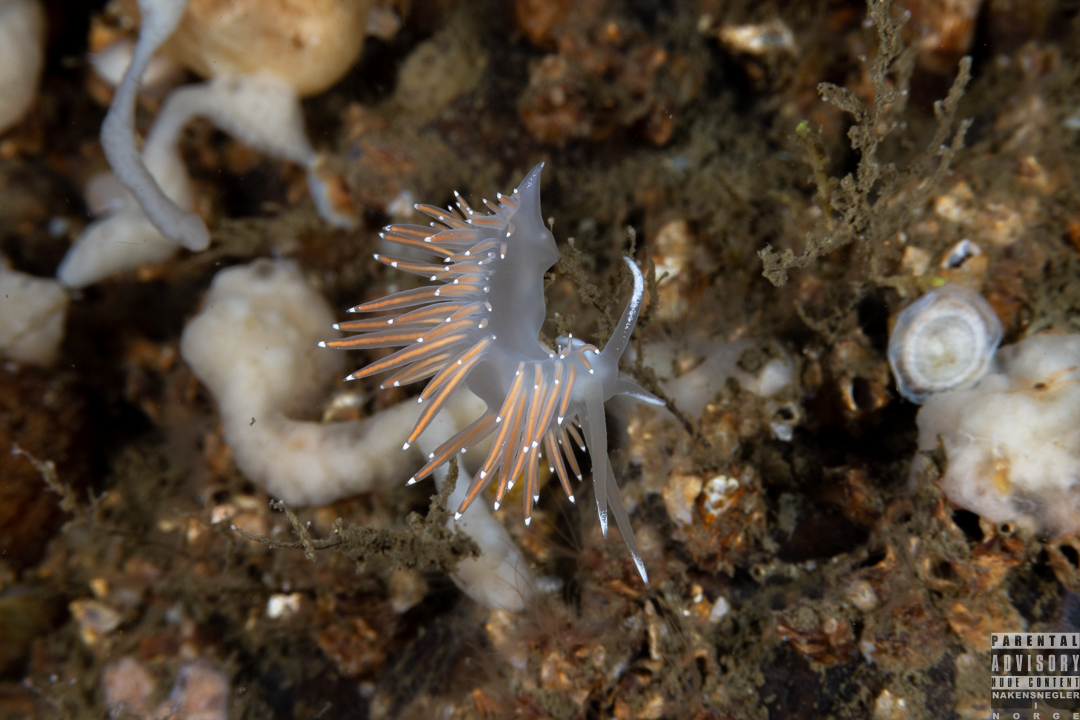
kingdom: Animalia
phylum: Mollusca
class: Gastropoda
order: Nudibranchia
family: Coryphellidae
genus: Coryphella
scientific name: Coryphella browni
